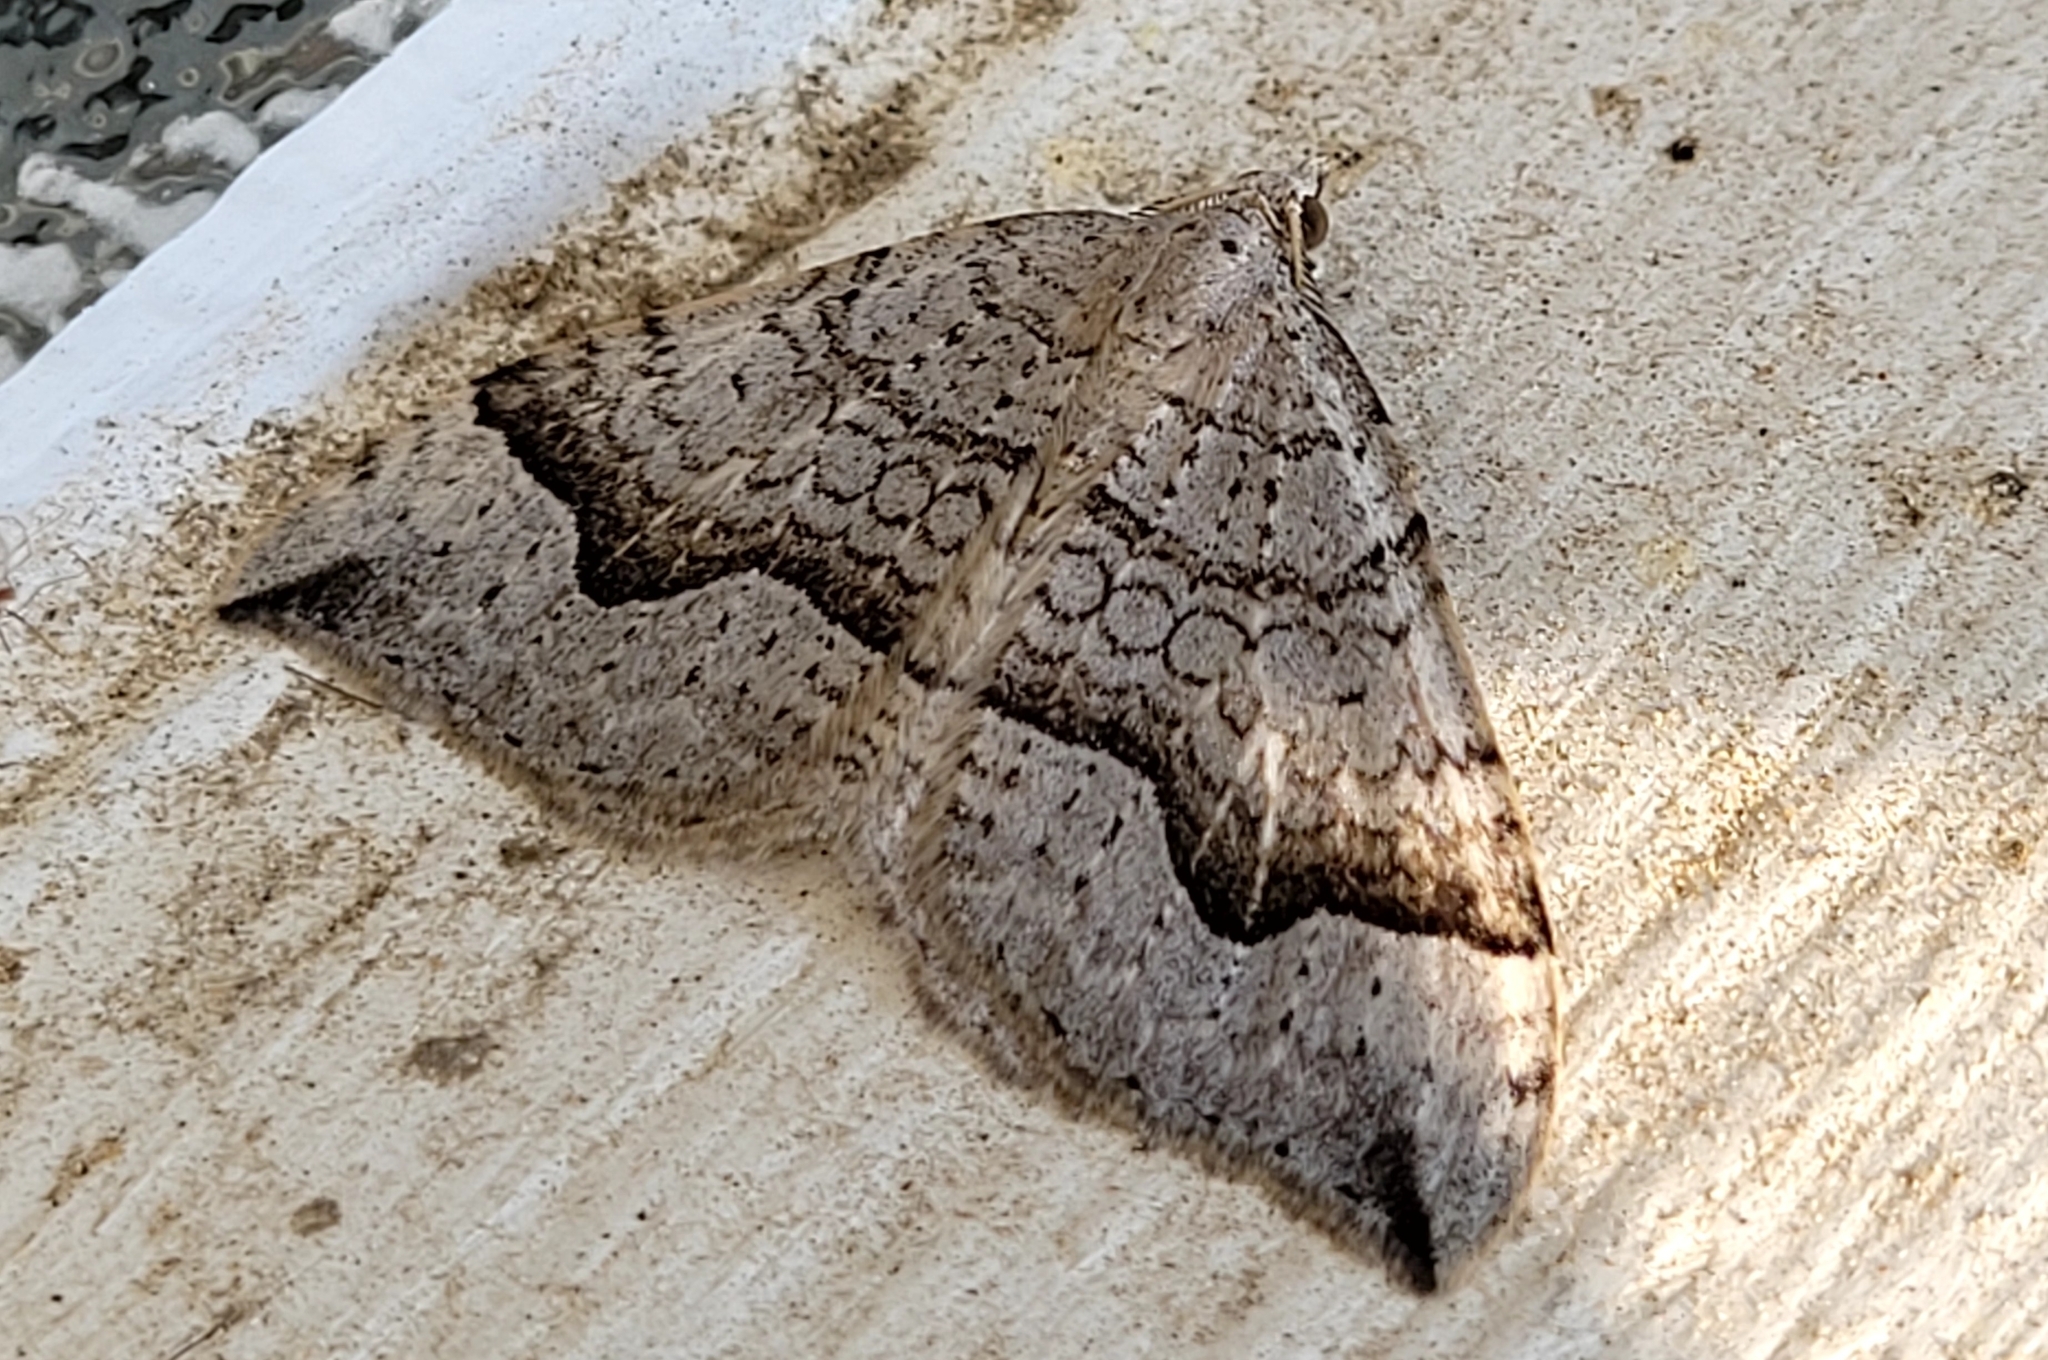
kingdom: Animalia
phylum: Arthropoda
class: Insecta
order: Lepidoptera
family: Geometridae
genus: Zenophleps
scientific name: Zenophleps alpinata
